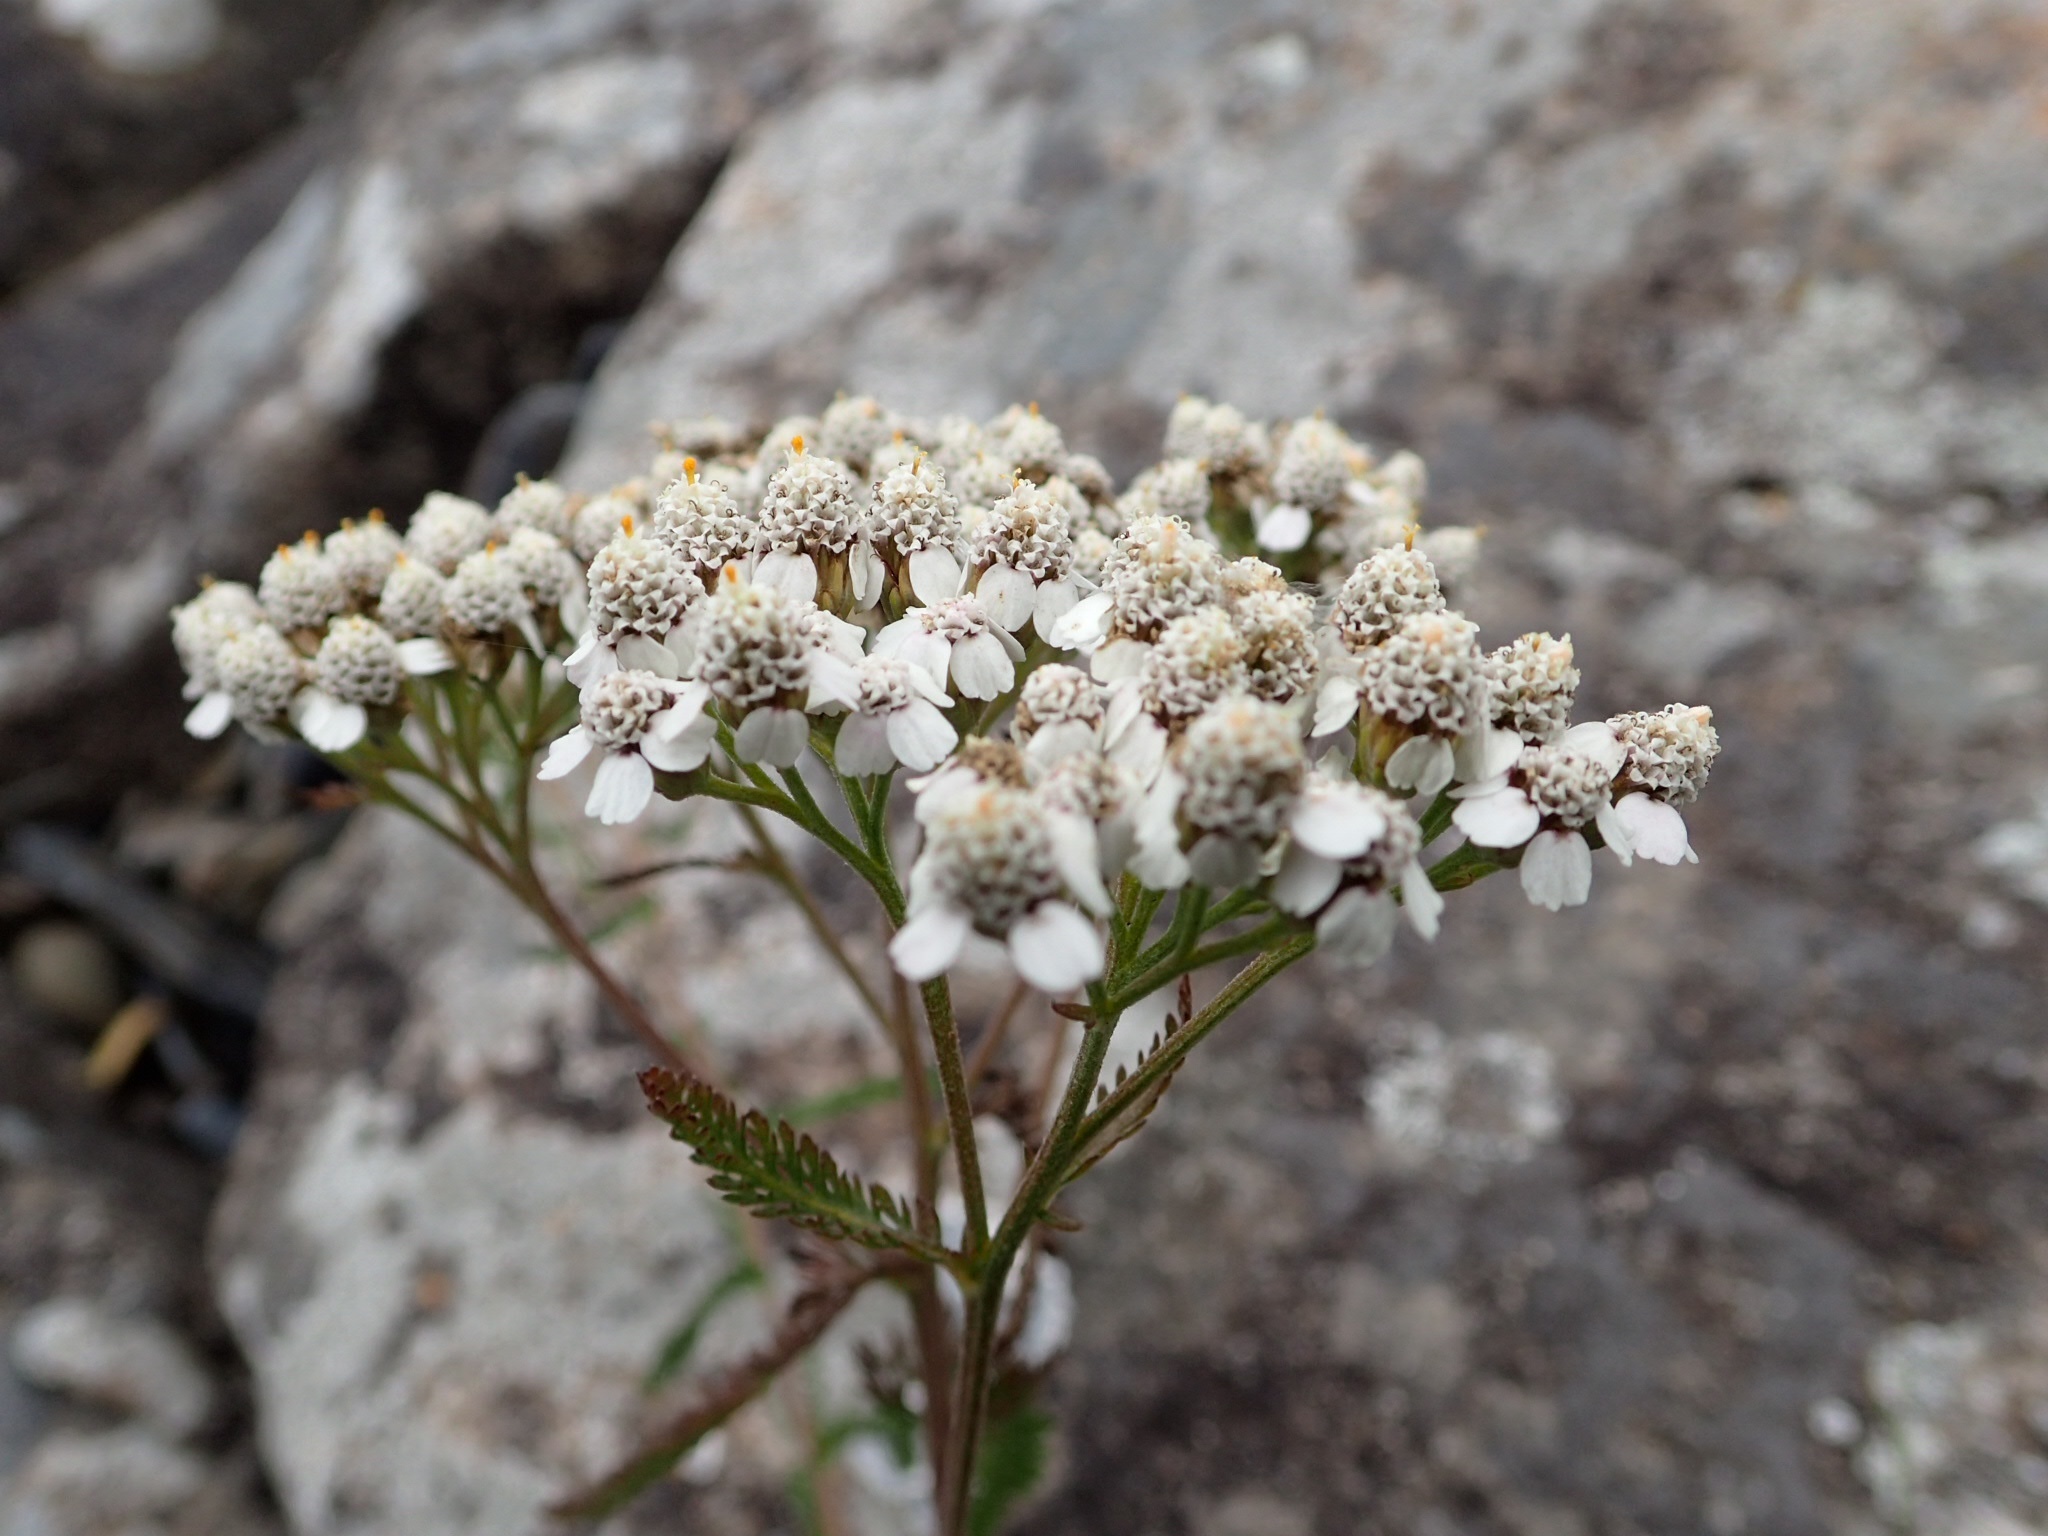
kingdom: Plantae
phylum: Tracheophyta
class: Magnoliopsida
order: Asterales
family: Asteraceae
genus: Achillea
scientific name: Achillea millefolium
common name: Yarrow
